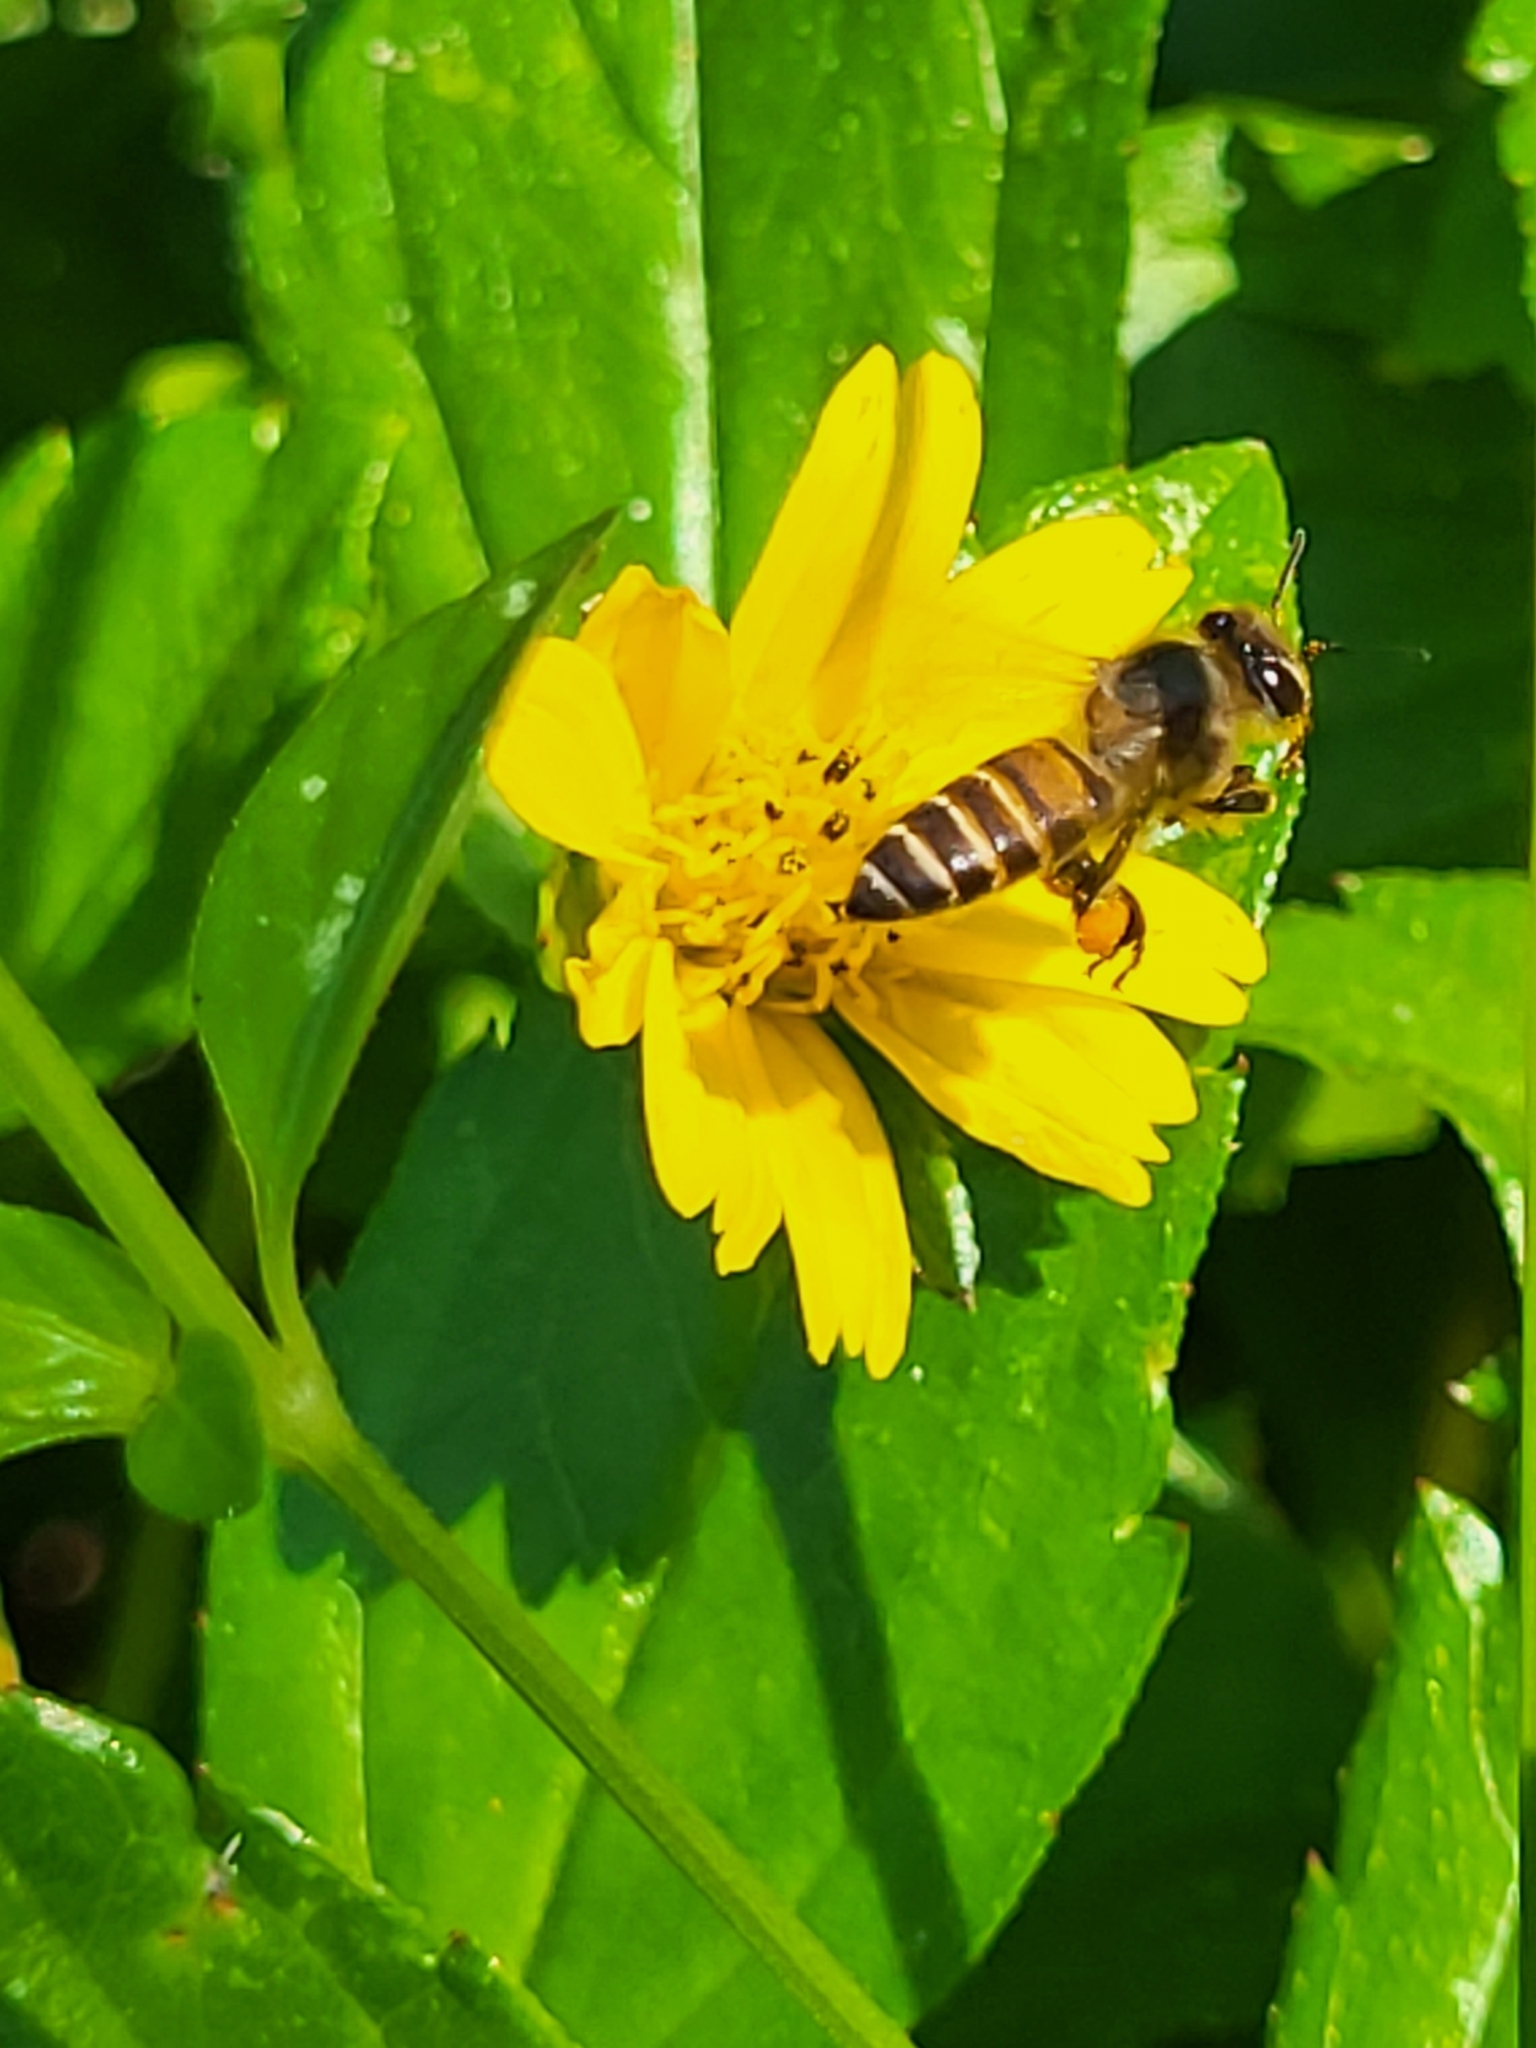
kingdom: Animalia
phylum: Arthropoda
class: Insecta
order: Hymenoptera
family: Apidae
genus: Apis
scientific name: Apis cerana
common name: Honey bee
